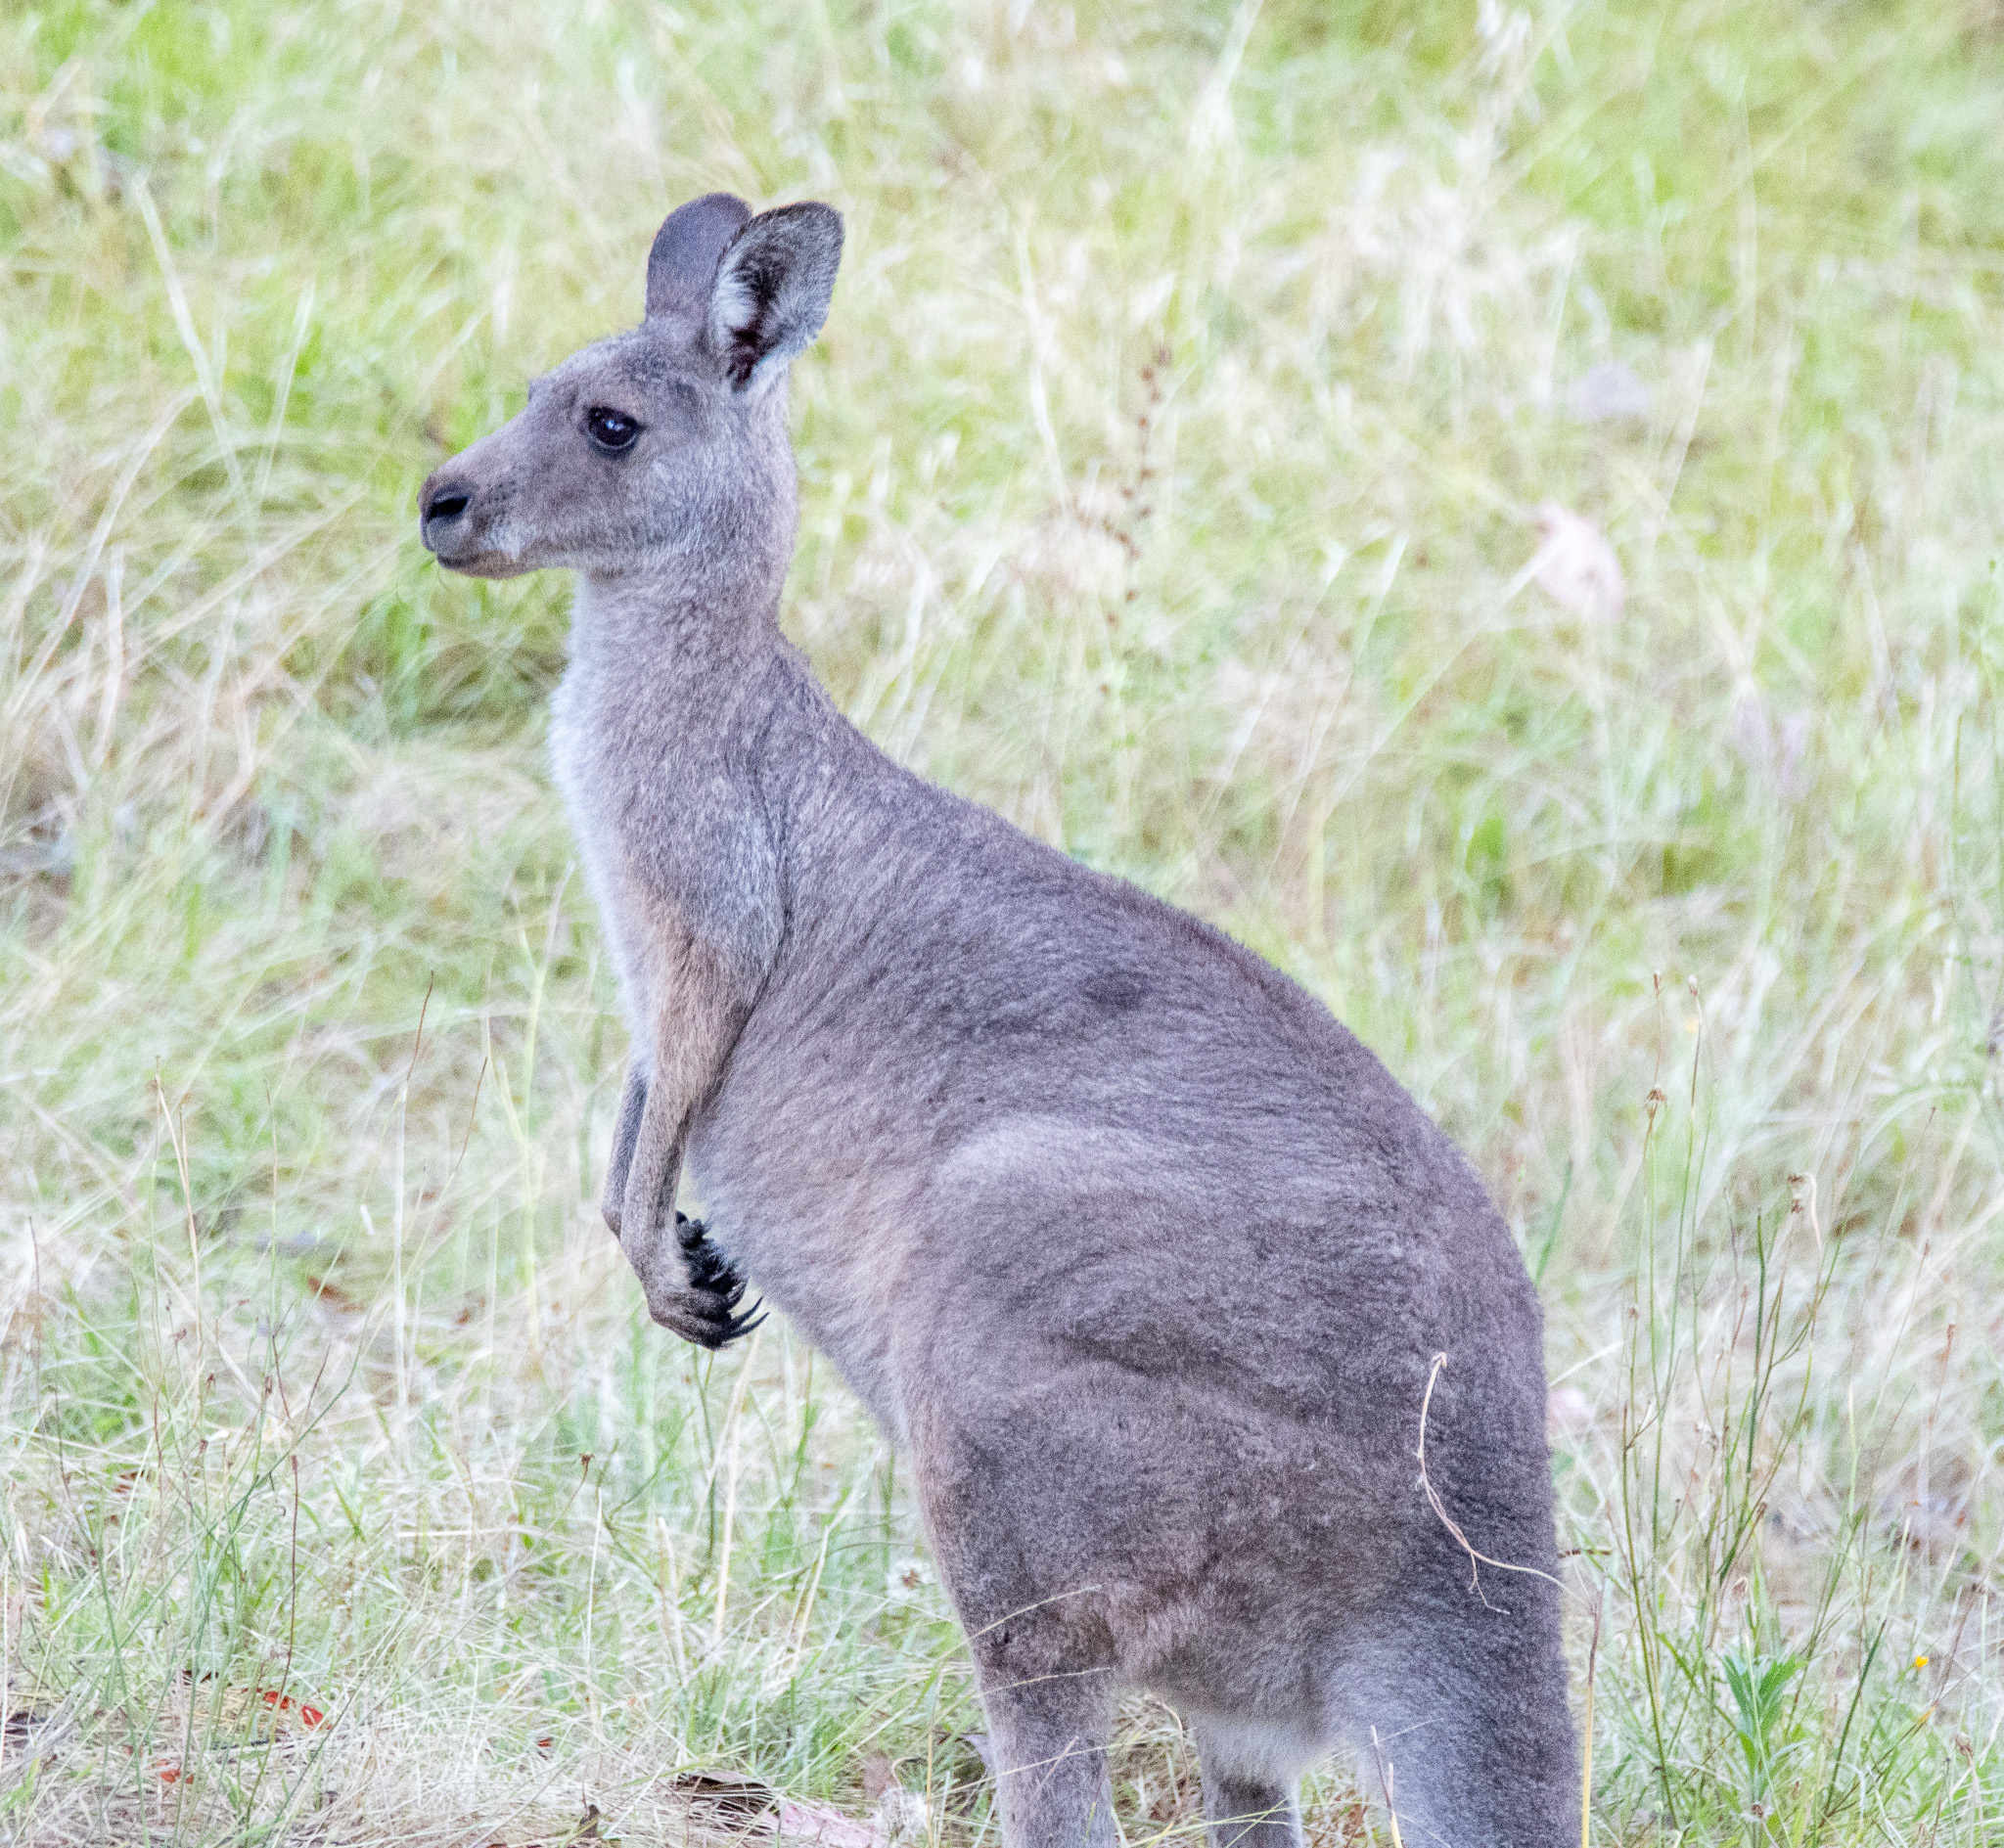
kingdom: Animalia
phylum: Chordata
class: Mammalia
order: Diprotodontia
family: Macropodidae
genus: Macropus
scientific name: Macropus giganteus
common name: Eastern grey kangaroo
